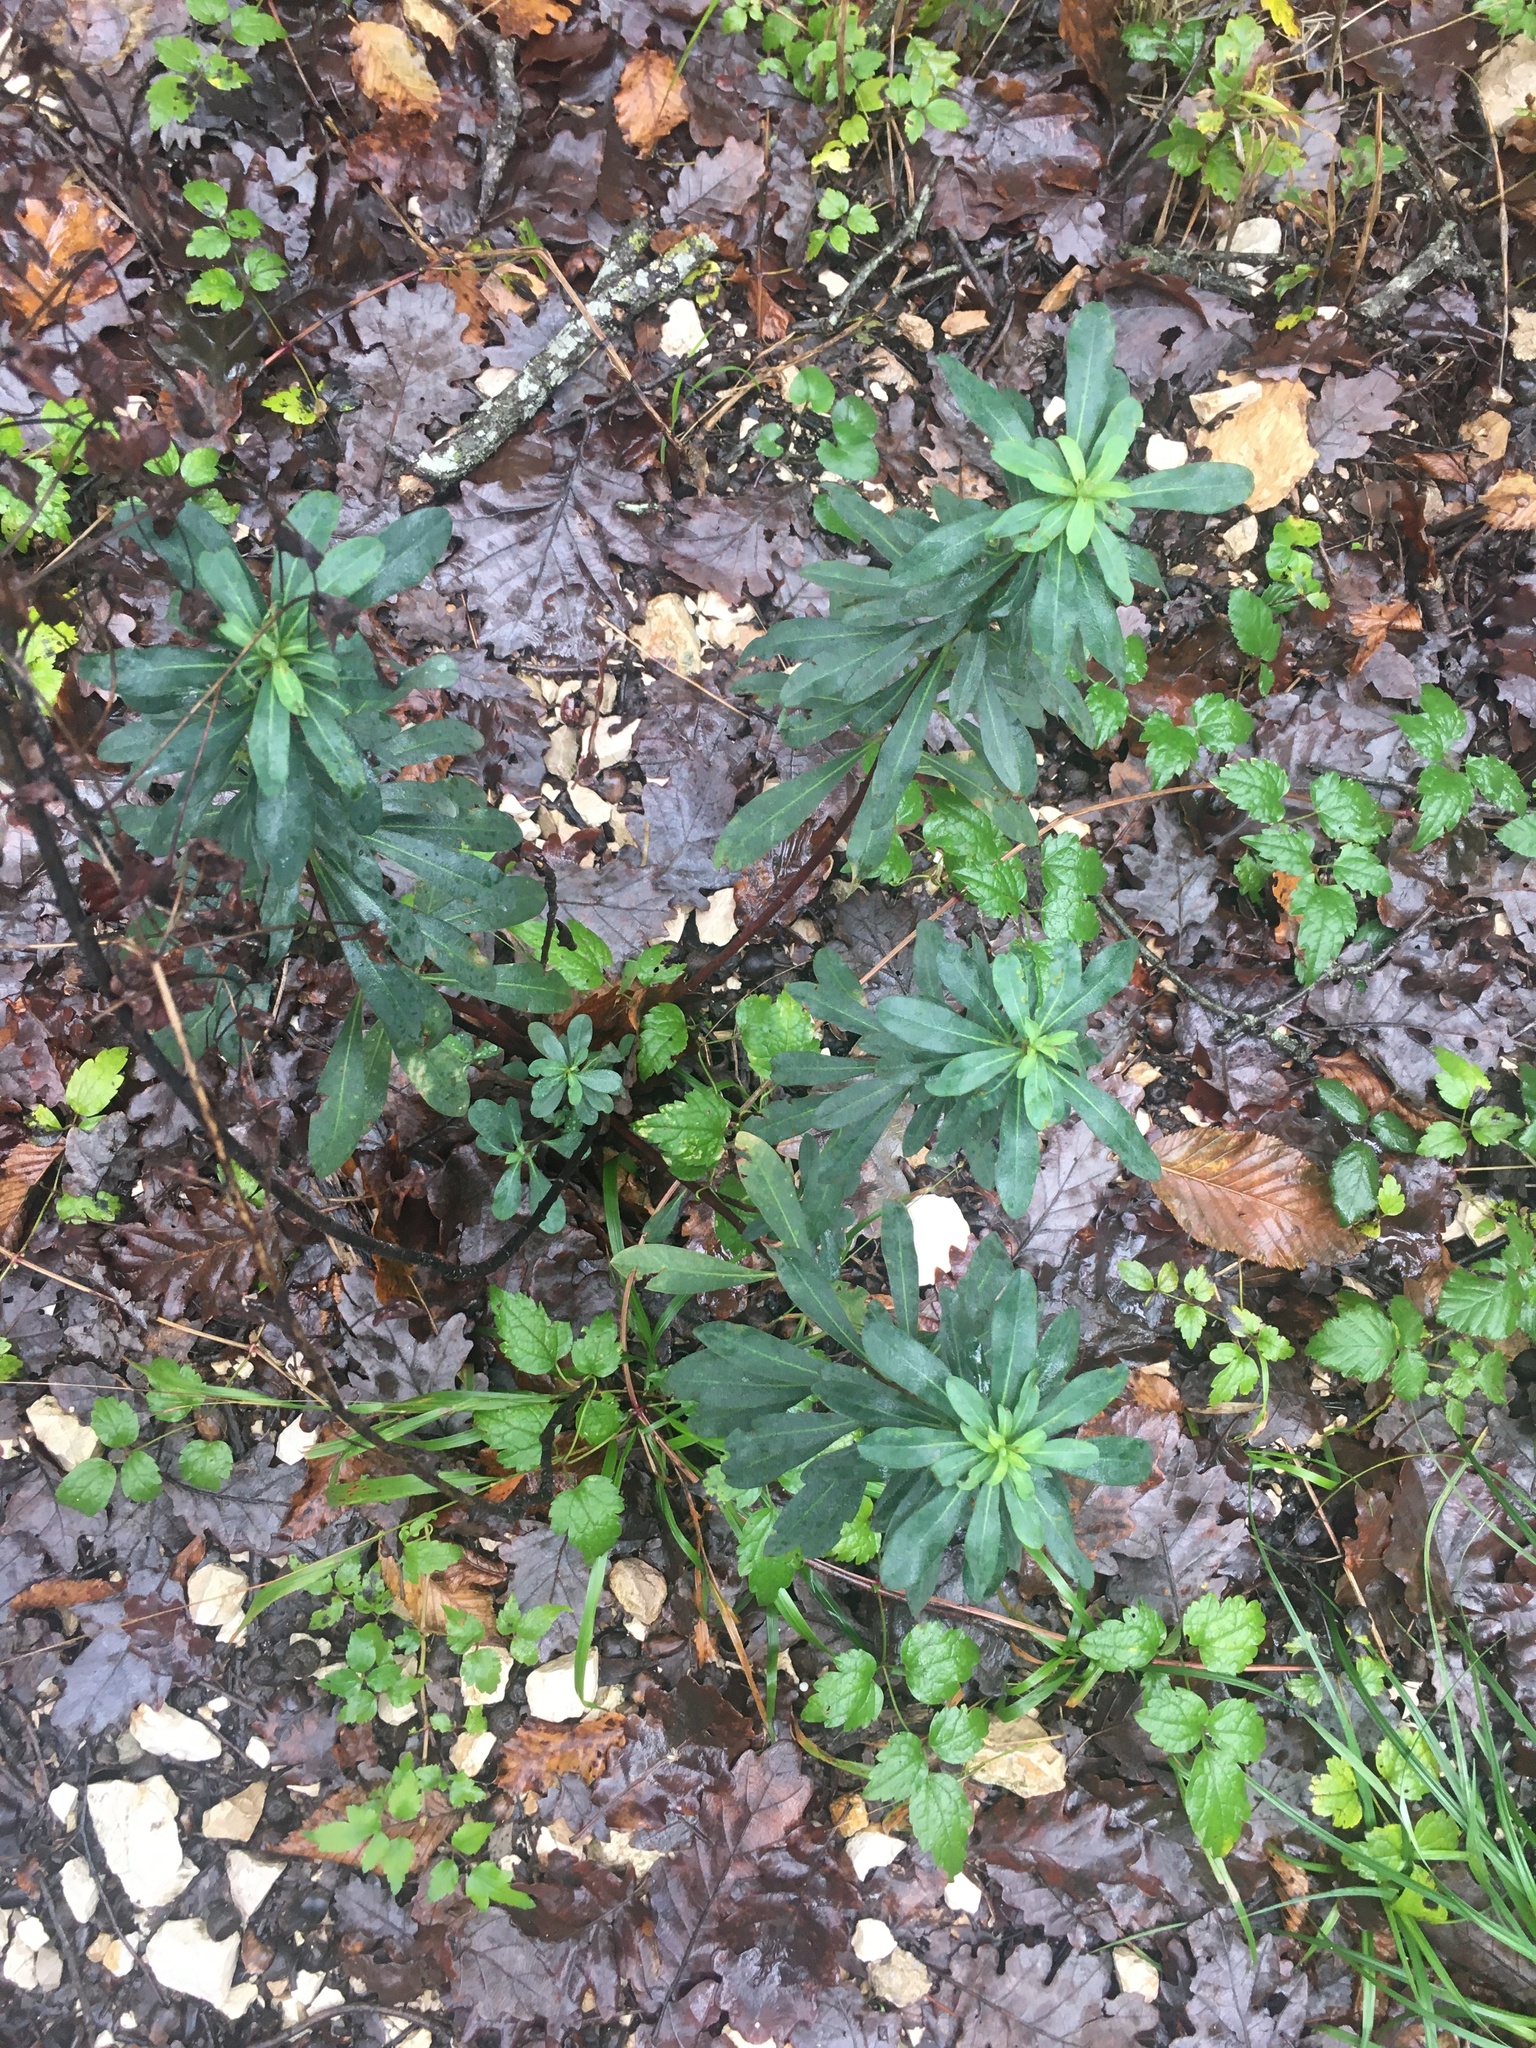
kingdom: Plantae
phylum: Tracheophyta
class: Magnoliopsida
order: Malpighiales
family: Euphorbiaceae
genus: Euphorbia
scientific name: Euphorbia amygdaloides
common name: Wood spurge
